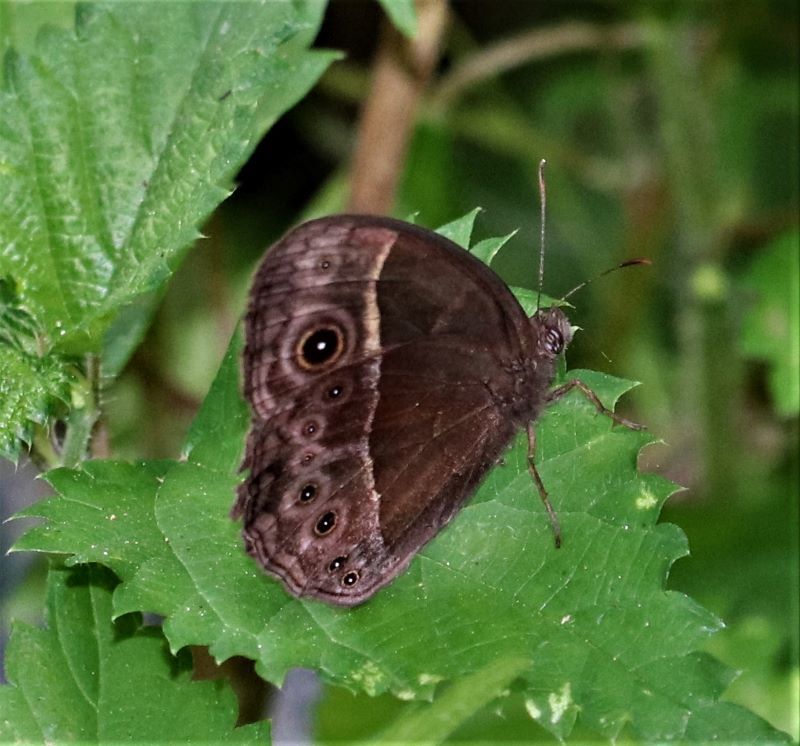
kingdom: Animalia
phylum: Arthropoda
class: Insecta
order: Lepidoptera
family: Nymphalidae
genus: Mycalesis
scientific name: Mycalesis rhacotis
